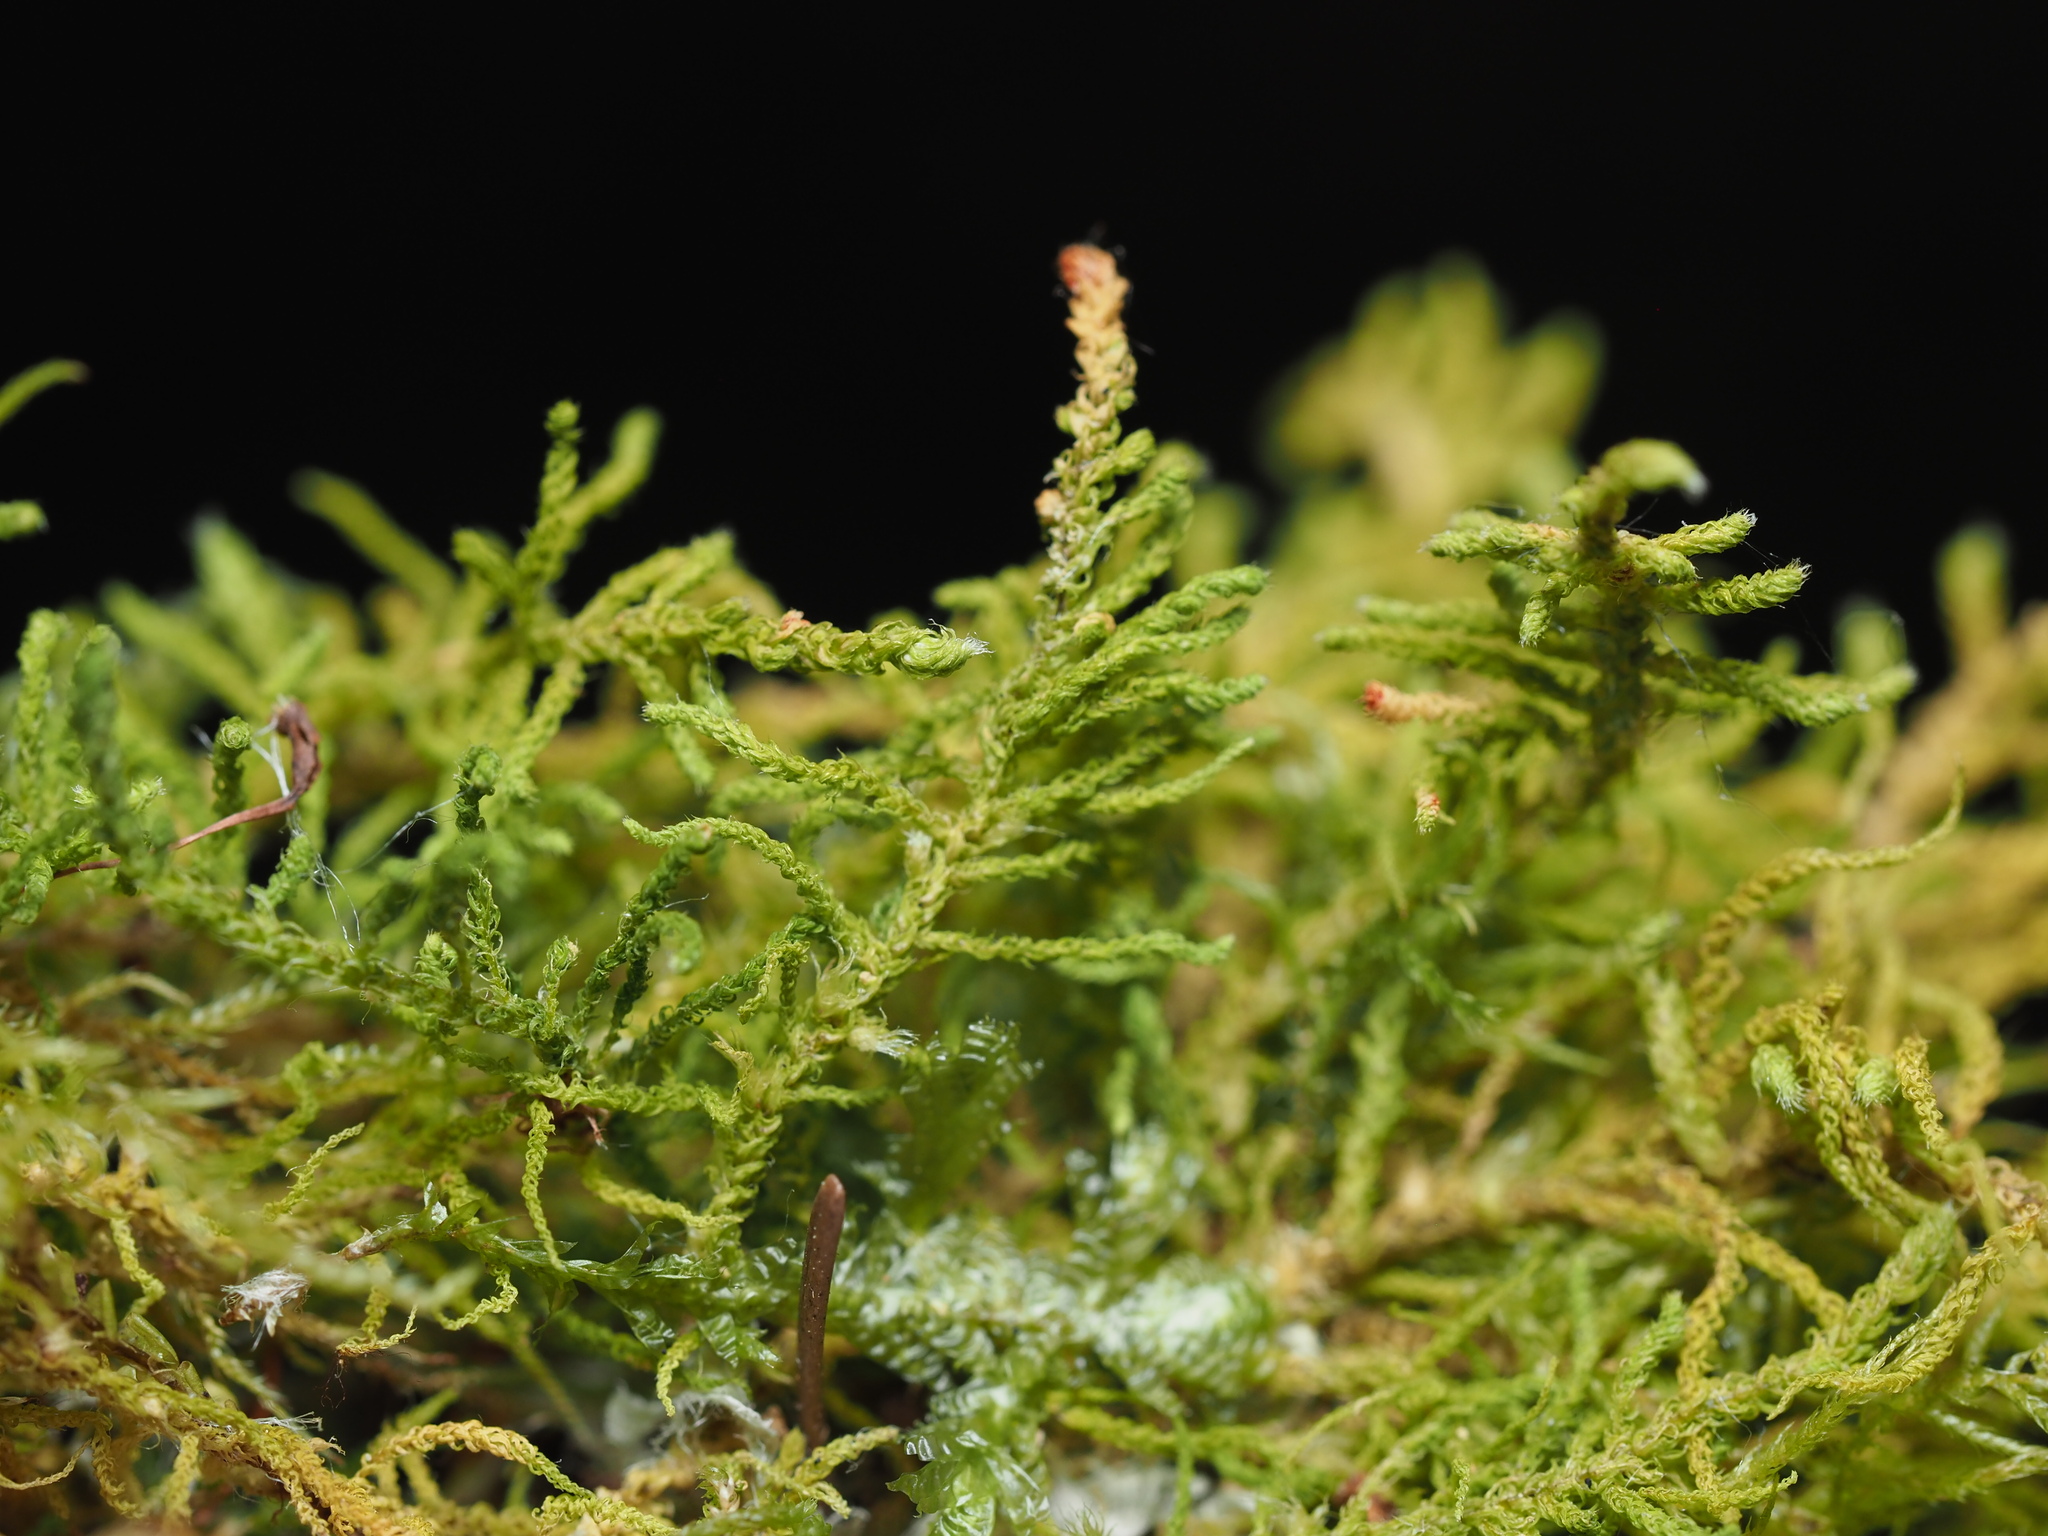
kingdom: Plantae
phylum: Bryophyta
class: Bryopsida
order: Hypnales
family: Brachytheciaceae
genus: Claopodium
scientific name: Claopodium crispifolium
